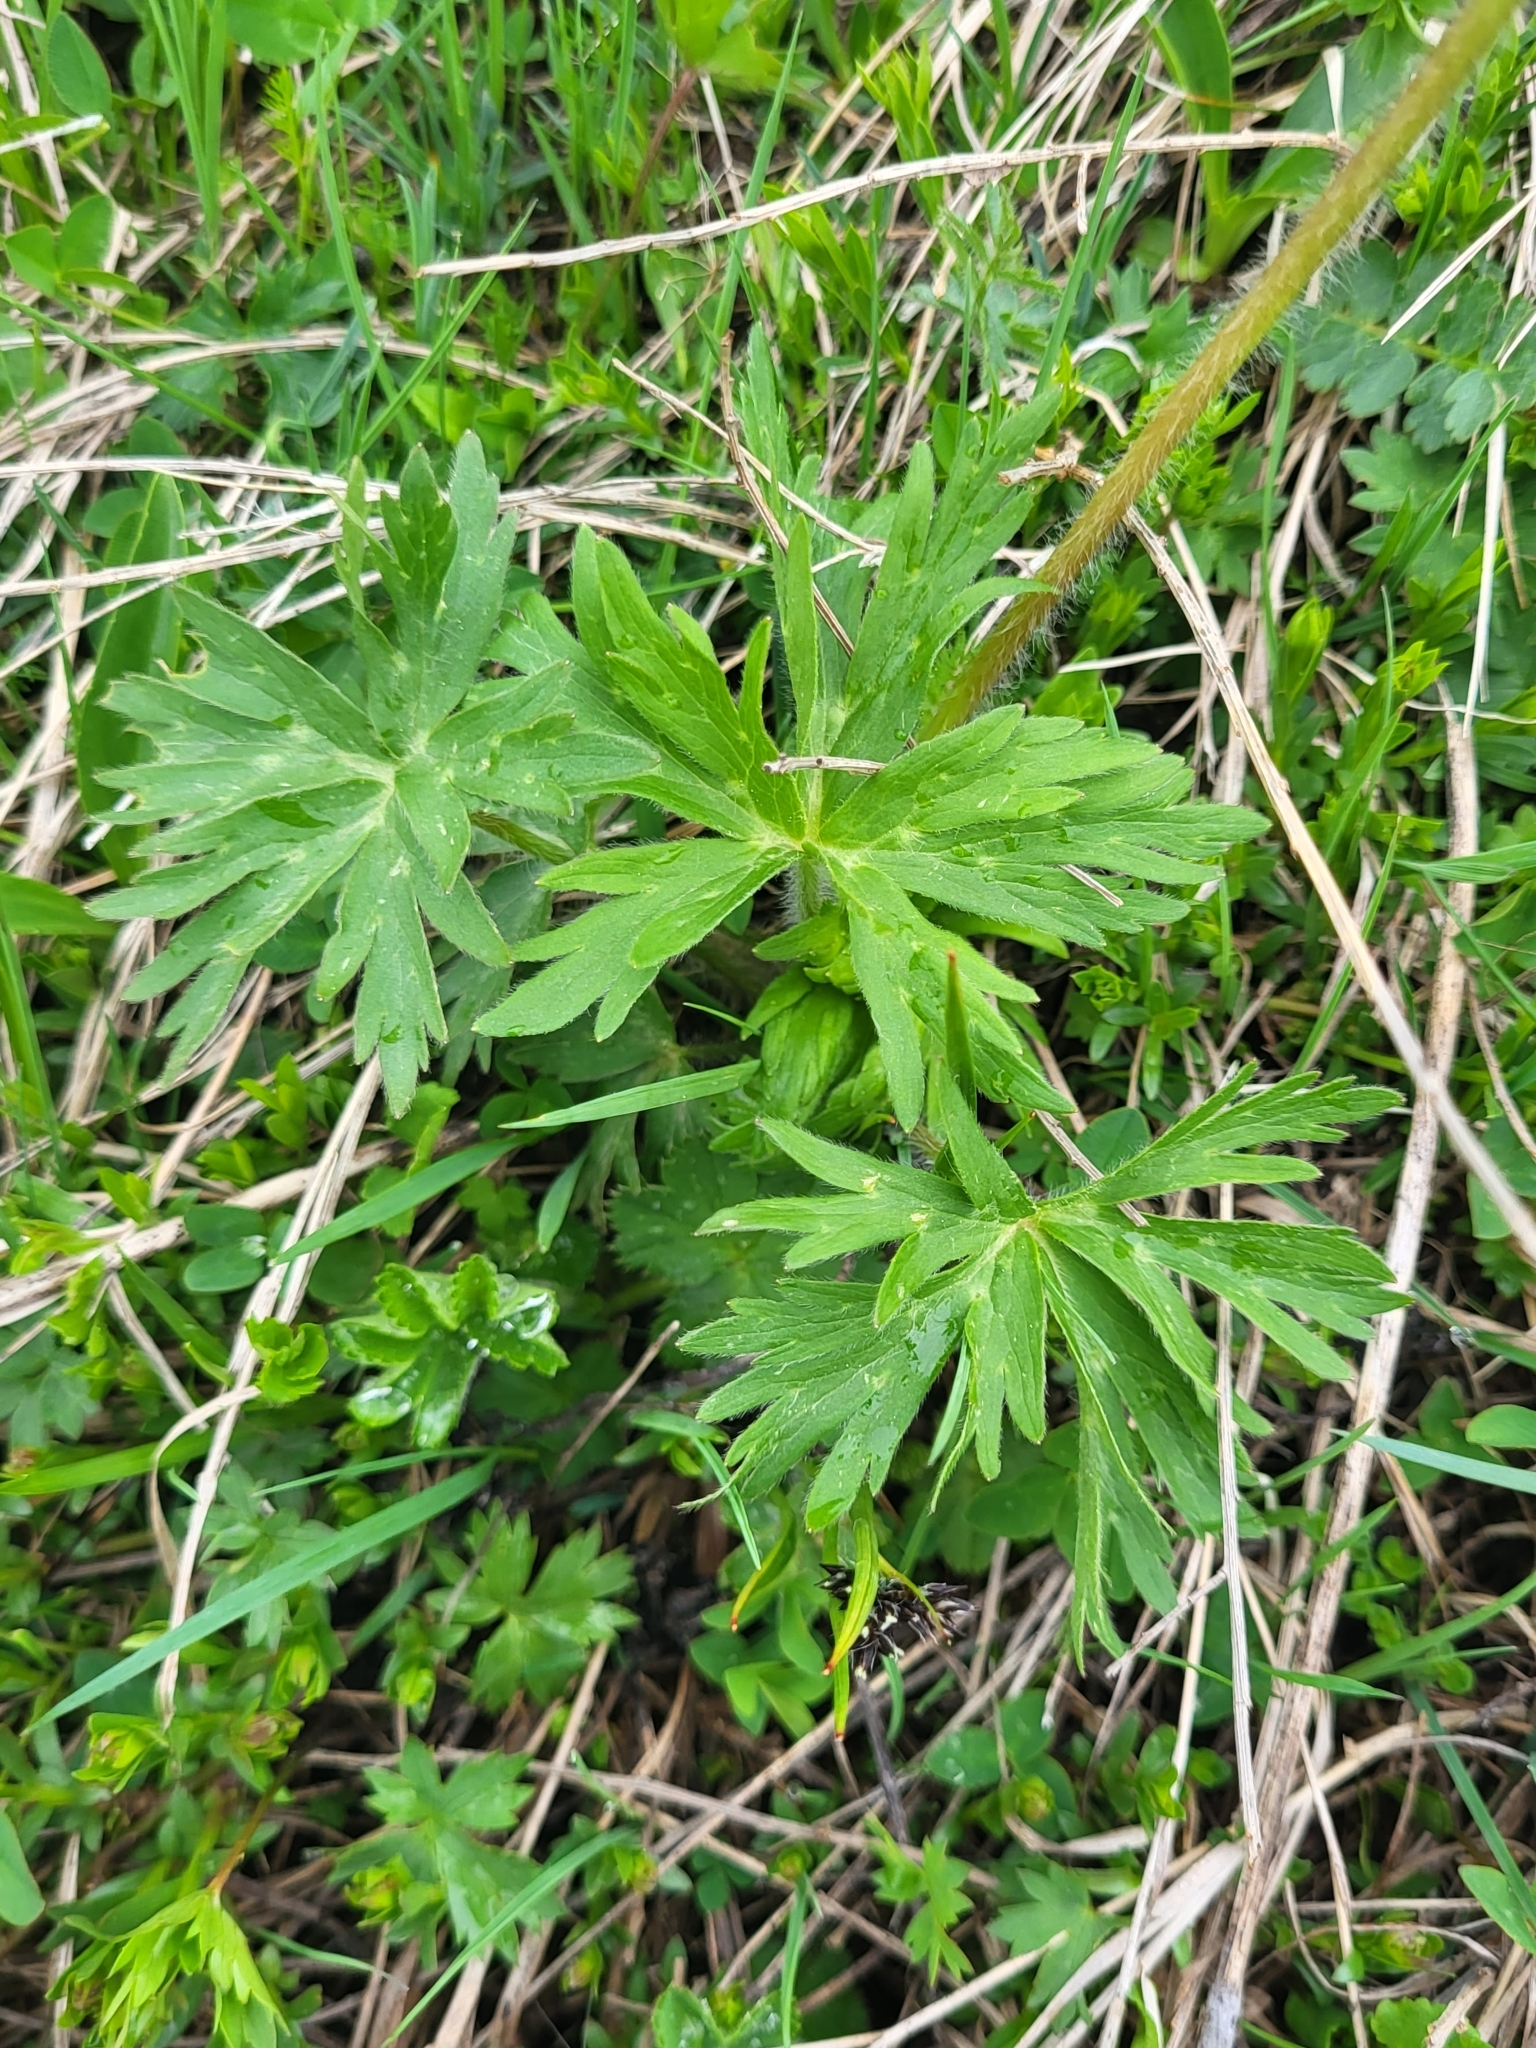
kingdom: Plantae
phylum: Tracheophyta
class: Magnoliopsida
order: Ranunculales
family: Ranunculaceae
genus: Anemonastrum
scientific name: Anemonastrum narcissiflorum
